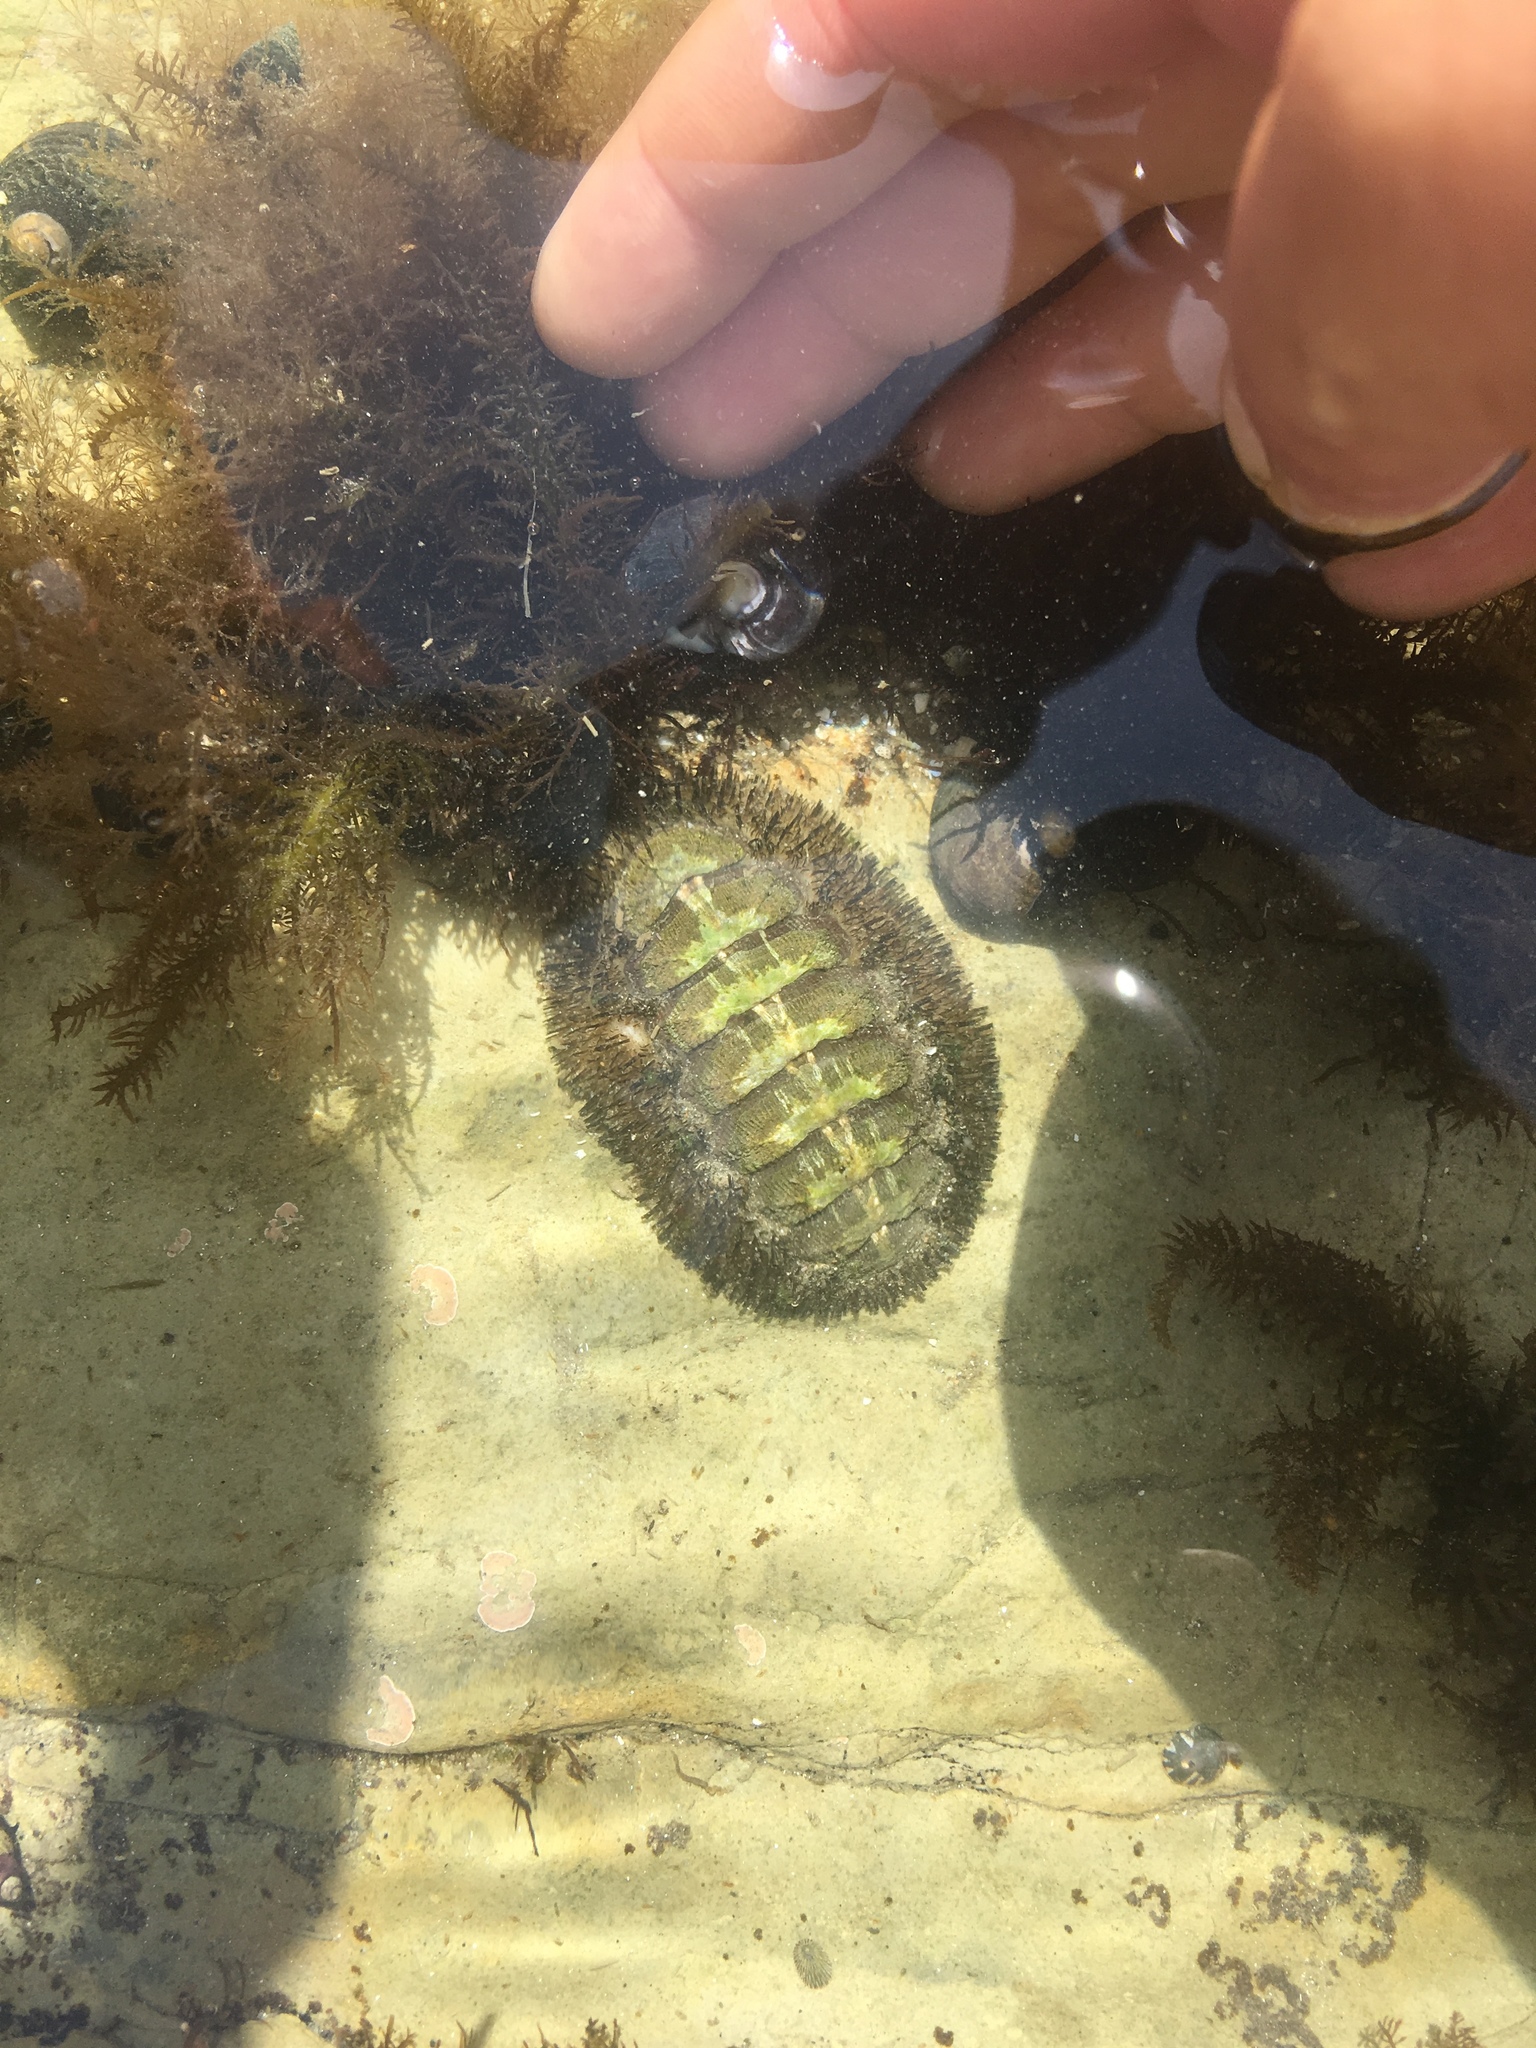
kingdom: Animalia
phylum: Mollusca
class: Polyplacophora
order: Chitonida
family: Mopaliidae
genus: Mopalia
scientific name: Mopalia muscosa
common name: Mossy chiton
